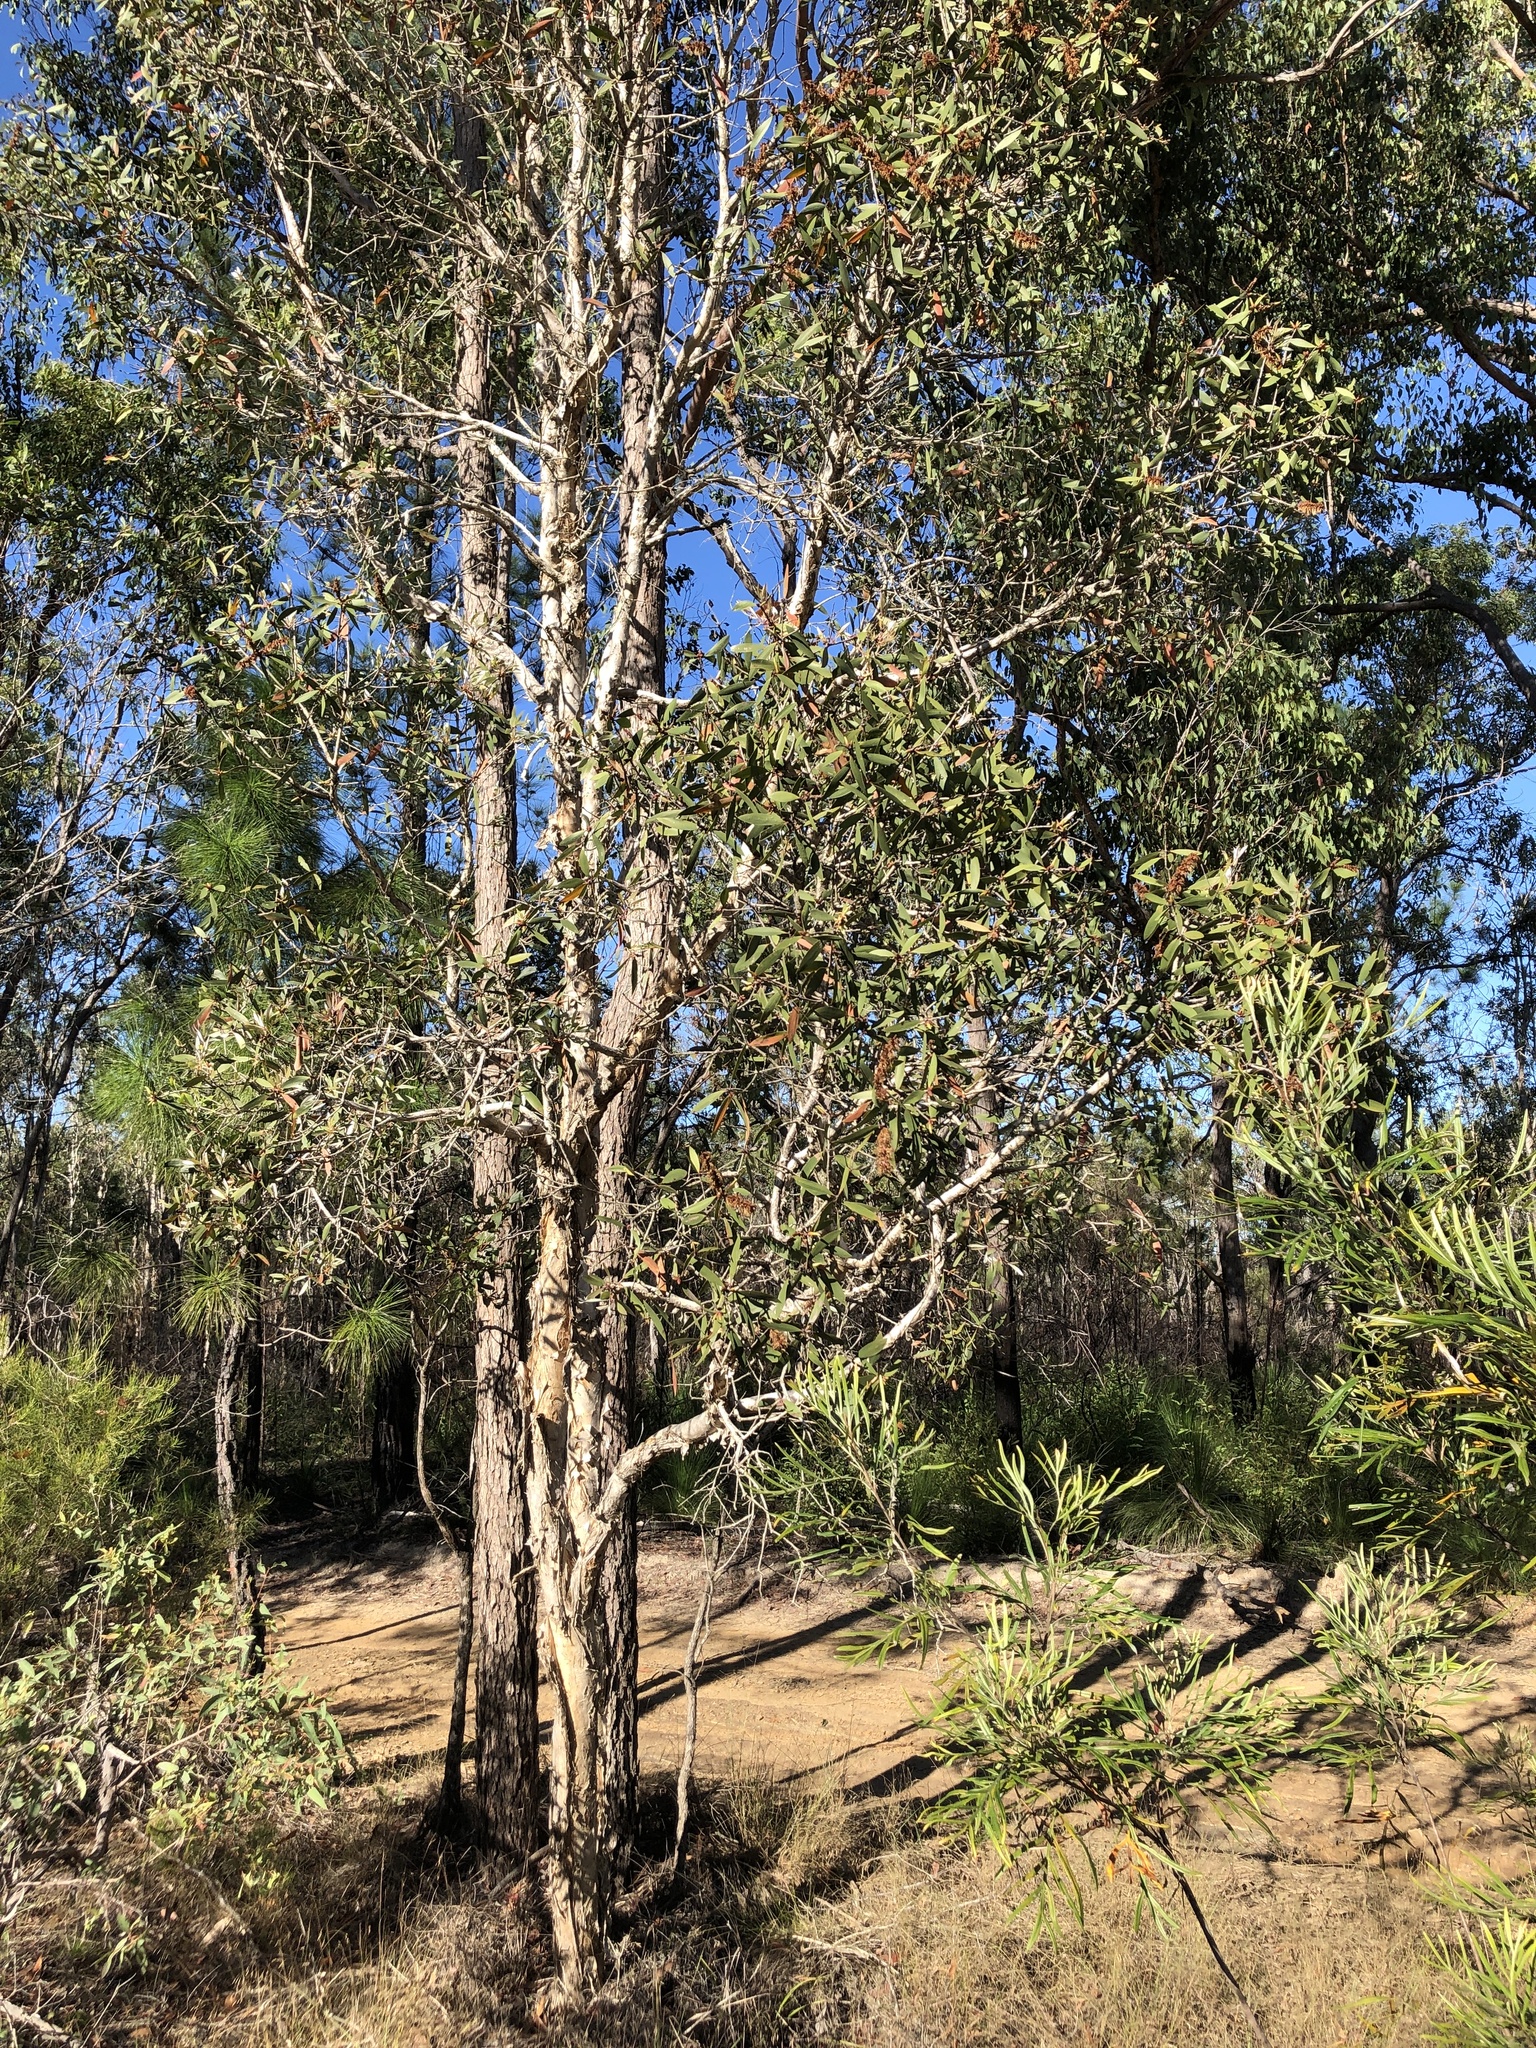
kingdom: Plantae
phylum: Tracheophyta
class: Magnoliopsida
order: Myrtales
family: Myrtaceae
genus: Melaleuca
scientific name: Melaleuca quinquenervia
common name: Punktree
